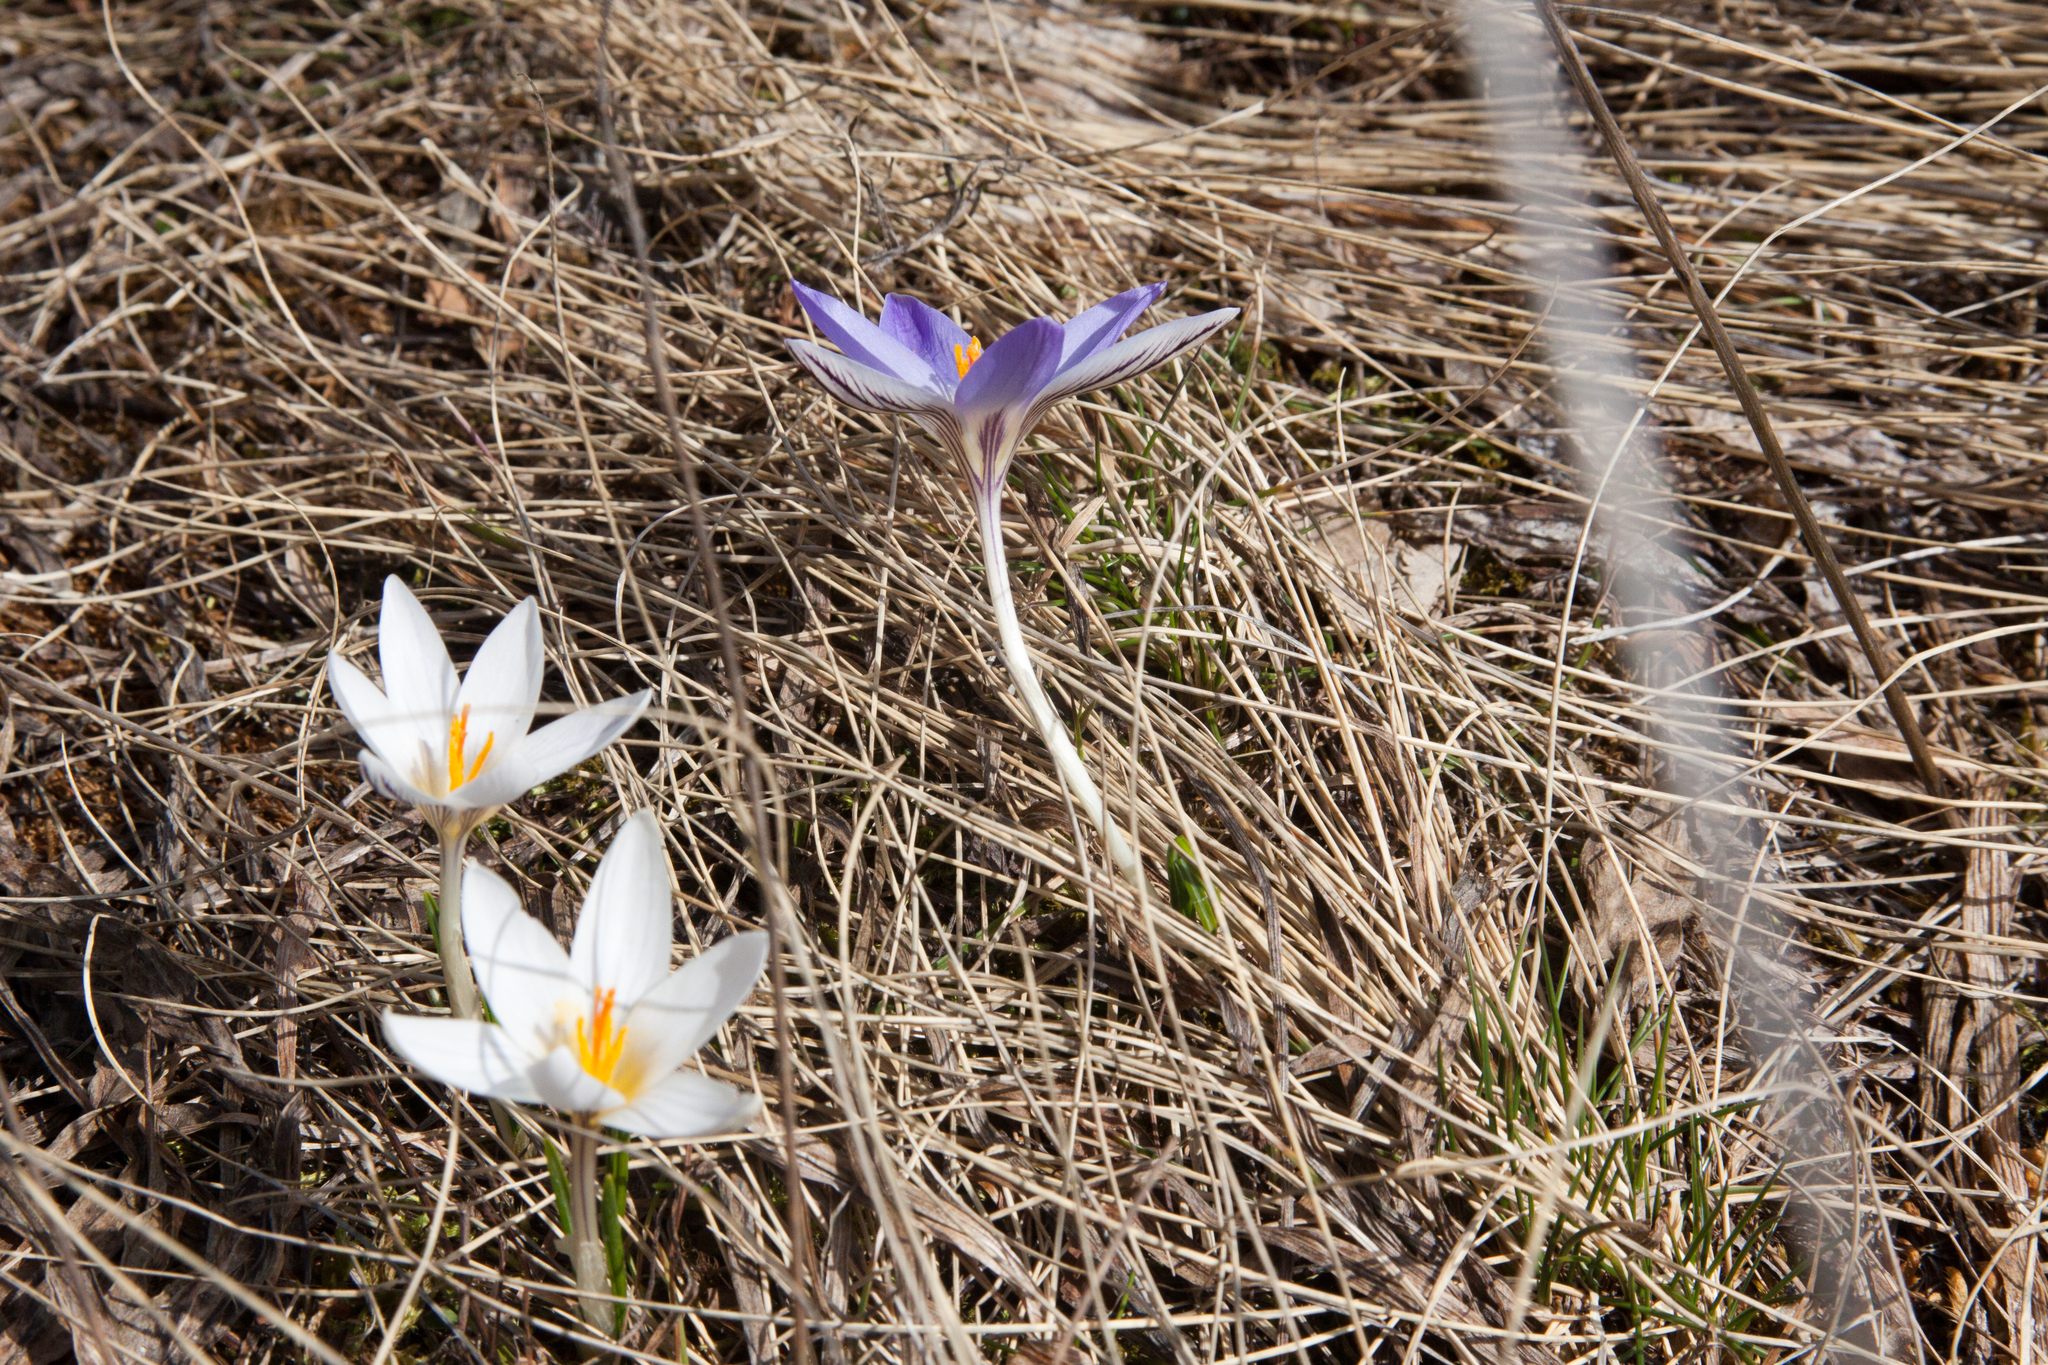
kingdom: Plantae
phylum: Tracheophyta
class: Liliopsida
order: Asparagales
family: Iridaceae
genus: Crocus
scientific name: Crocus reticulatus
